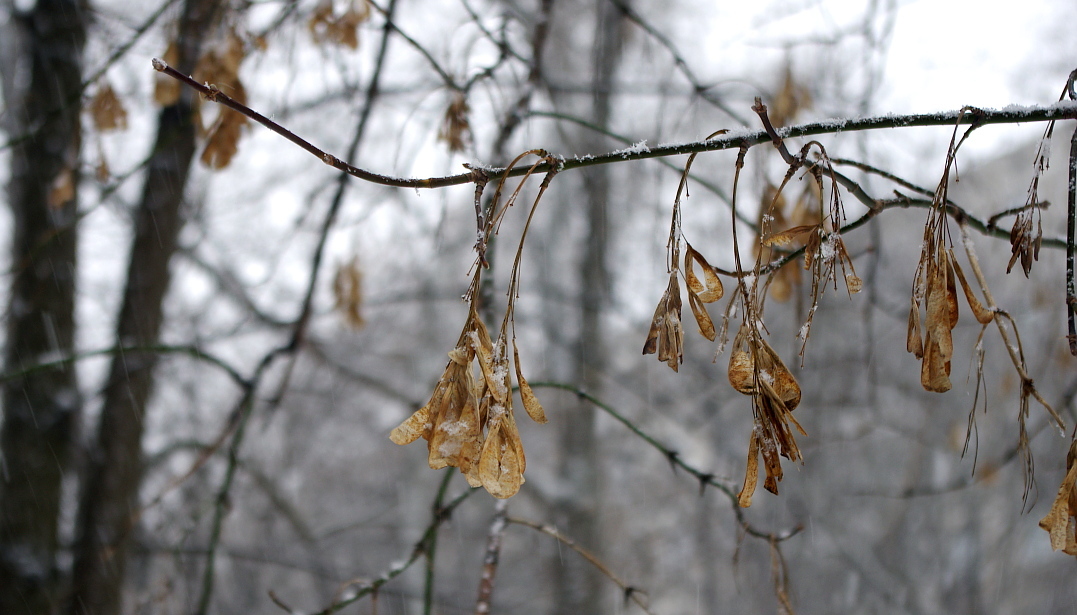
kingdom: Plantae
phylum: Tracheophyta
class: Magnoliopsida
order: Sapindales
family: Sapindaceae
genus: Acer
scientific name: Acer negundo
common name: Ashleaf maple
